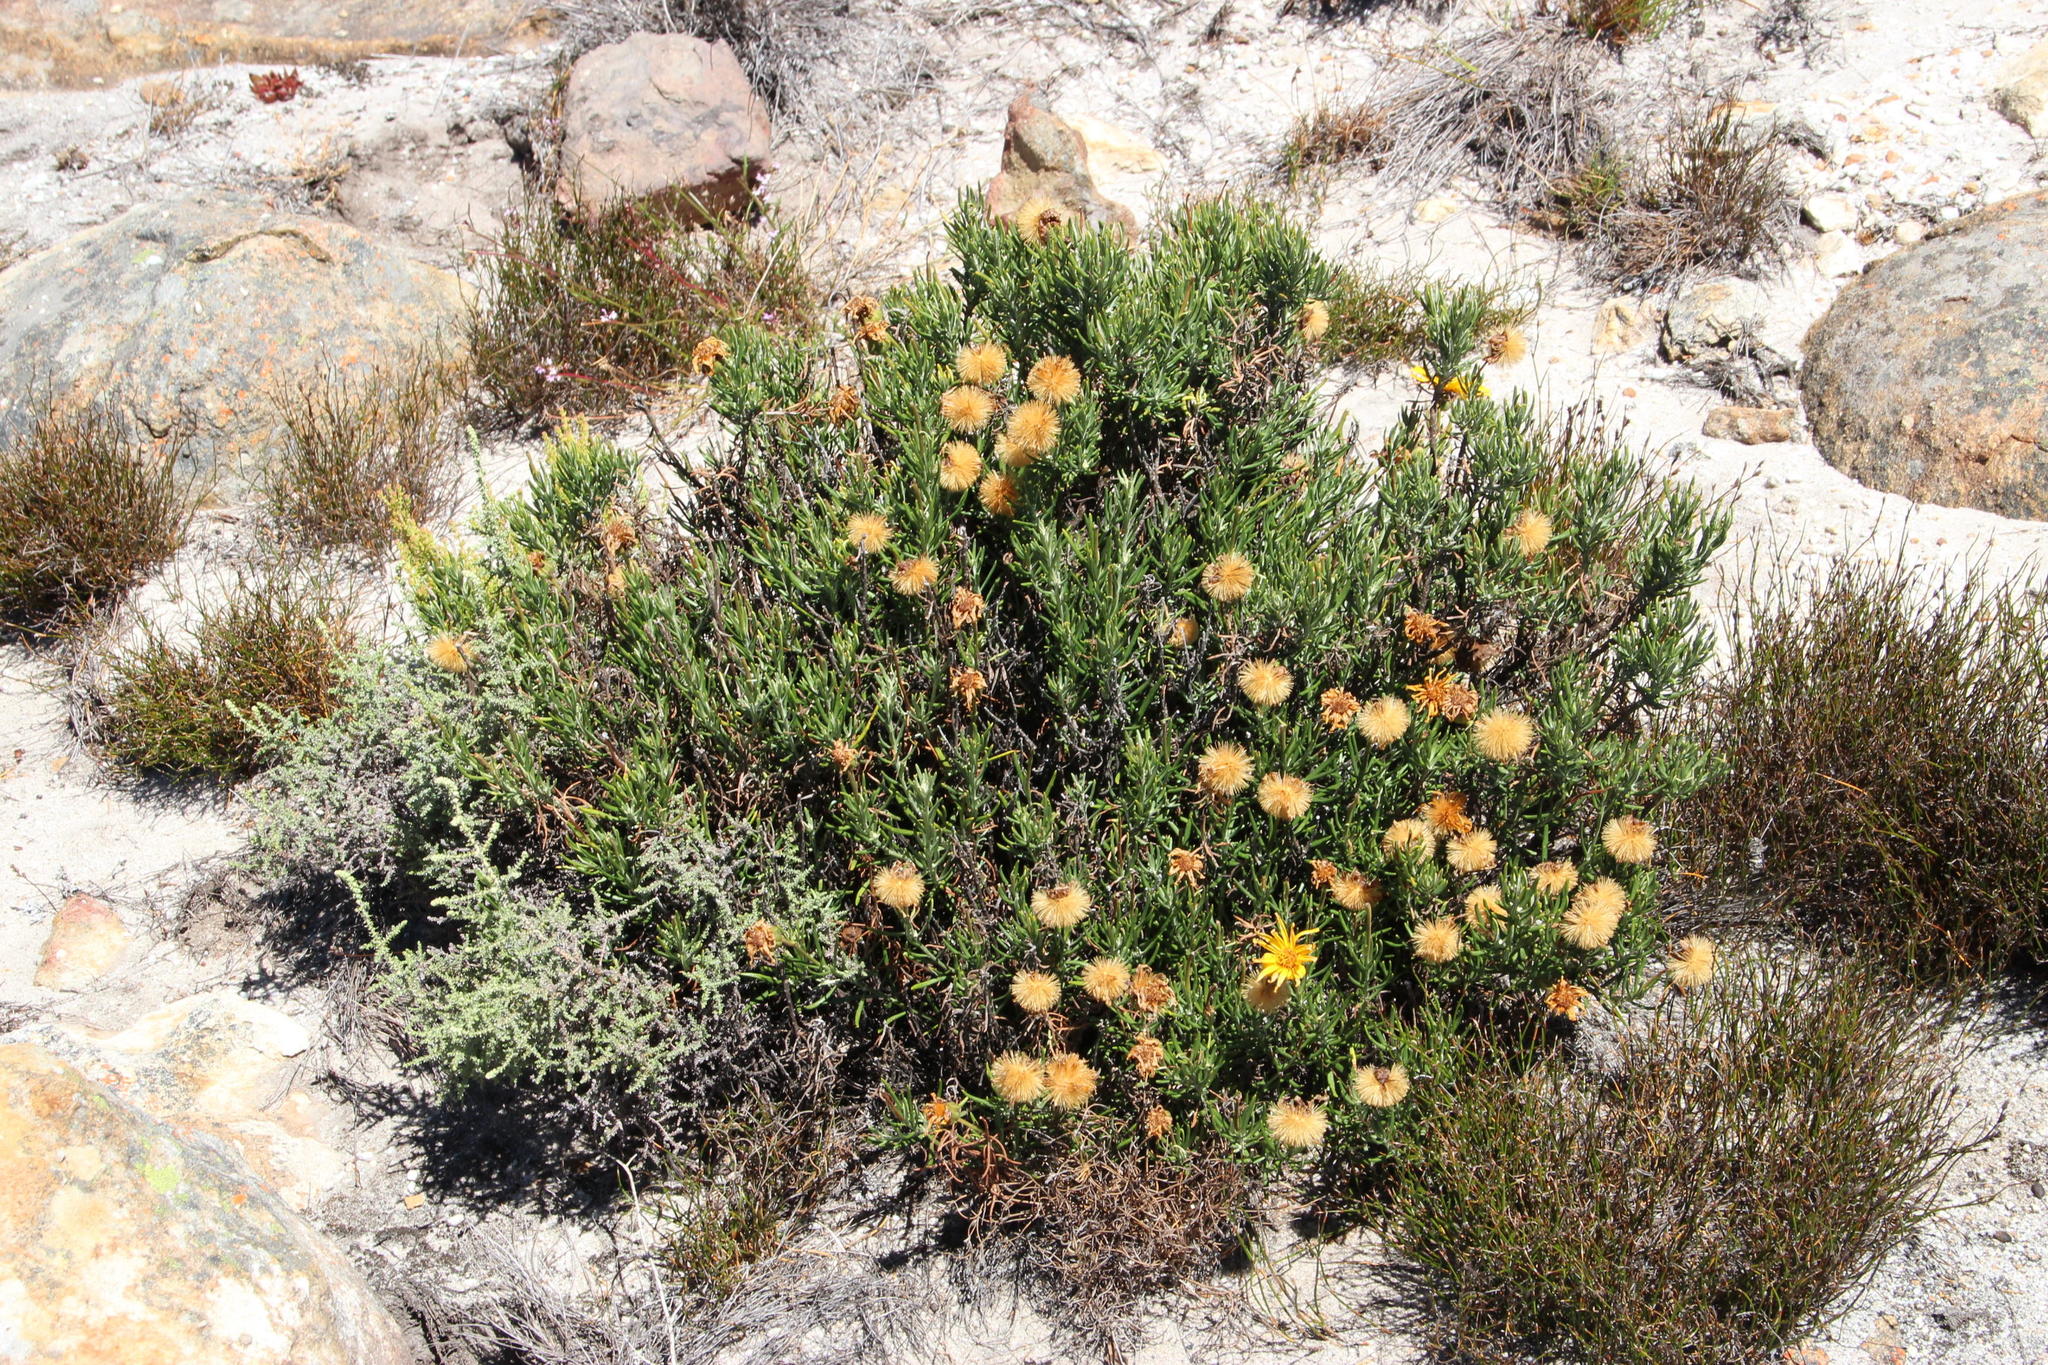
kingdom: Plantae
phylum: Tracheophyta
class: Magnoliopsida
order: Asterales
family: Asteraceae
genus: Heterolepis
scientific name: Heterolepis aliena
